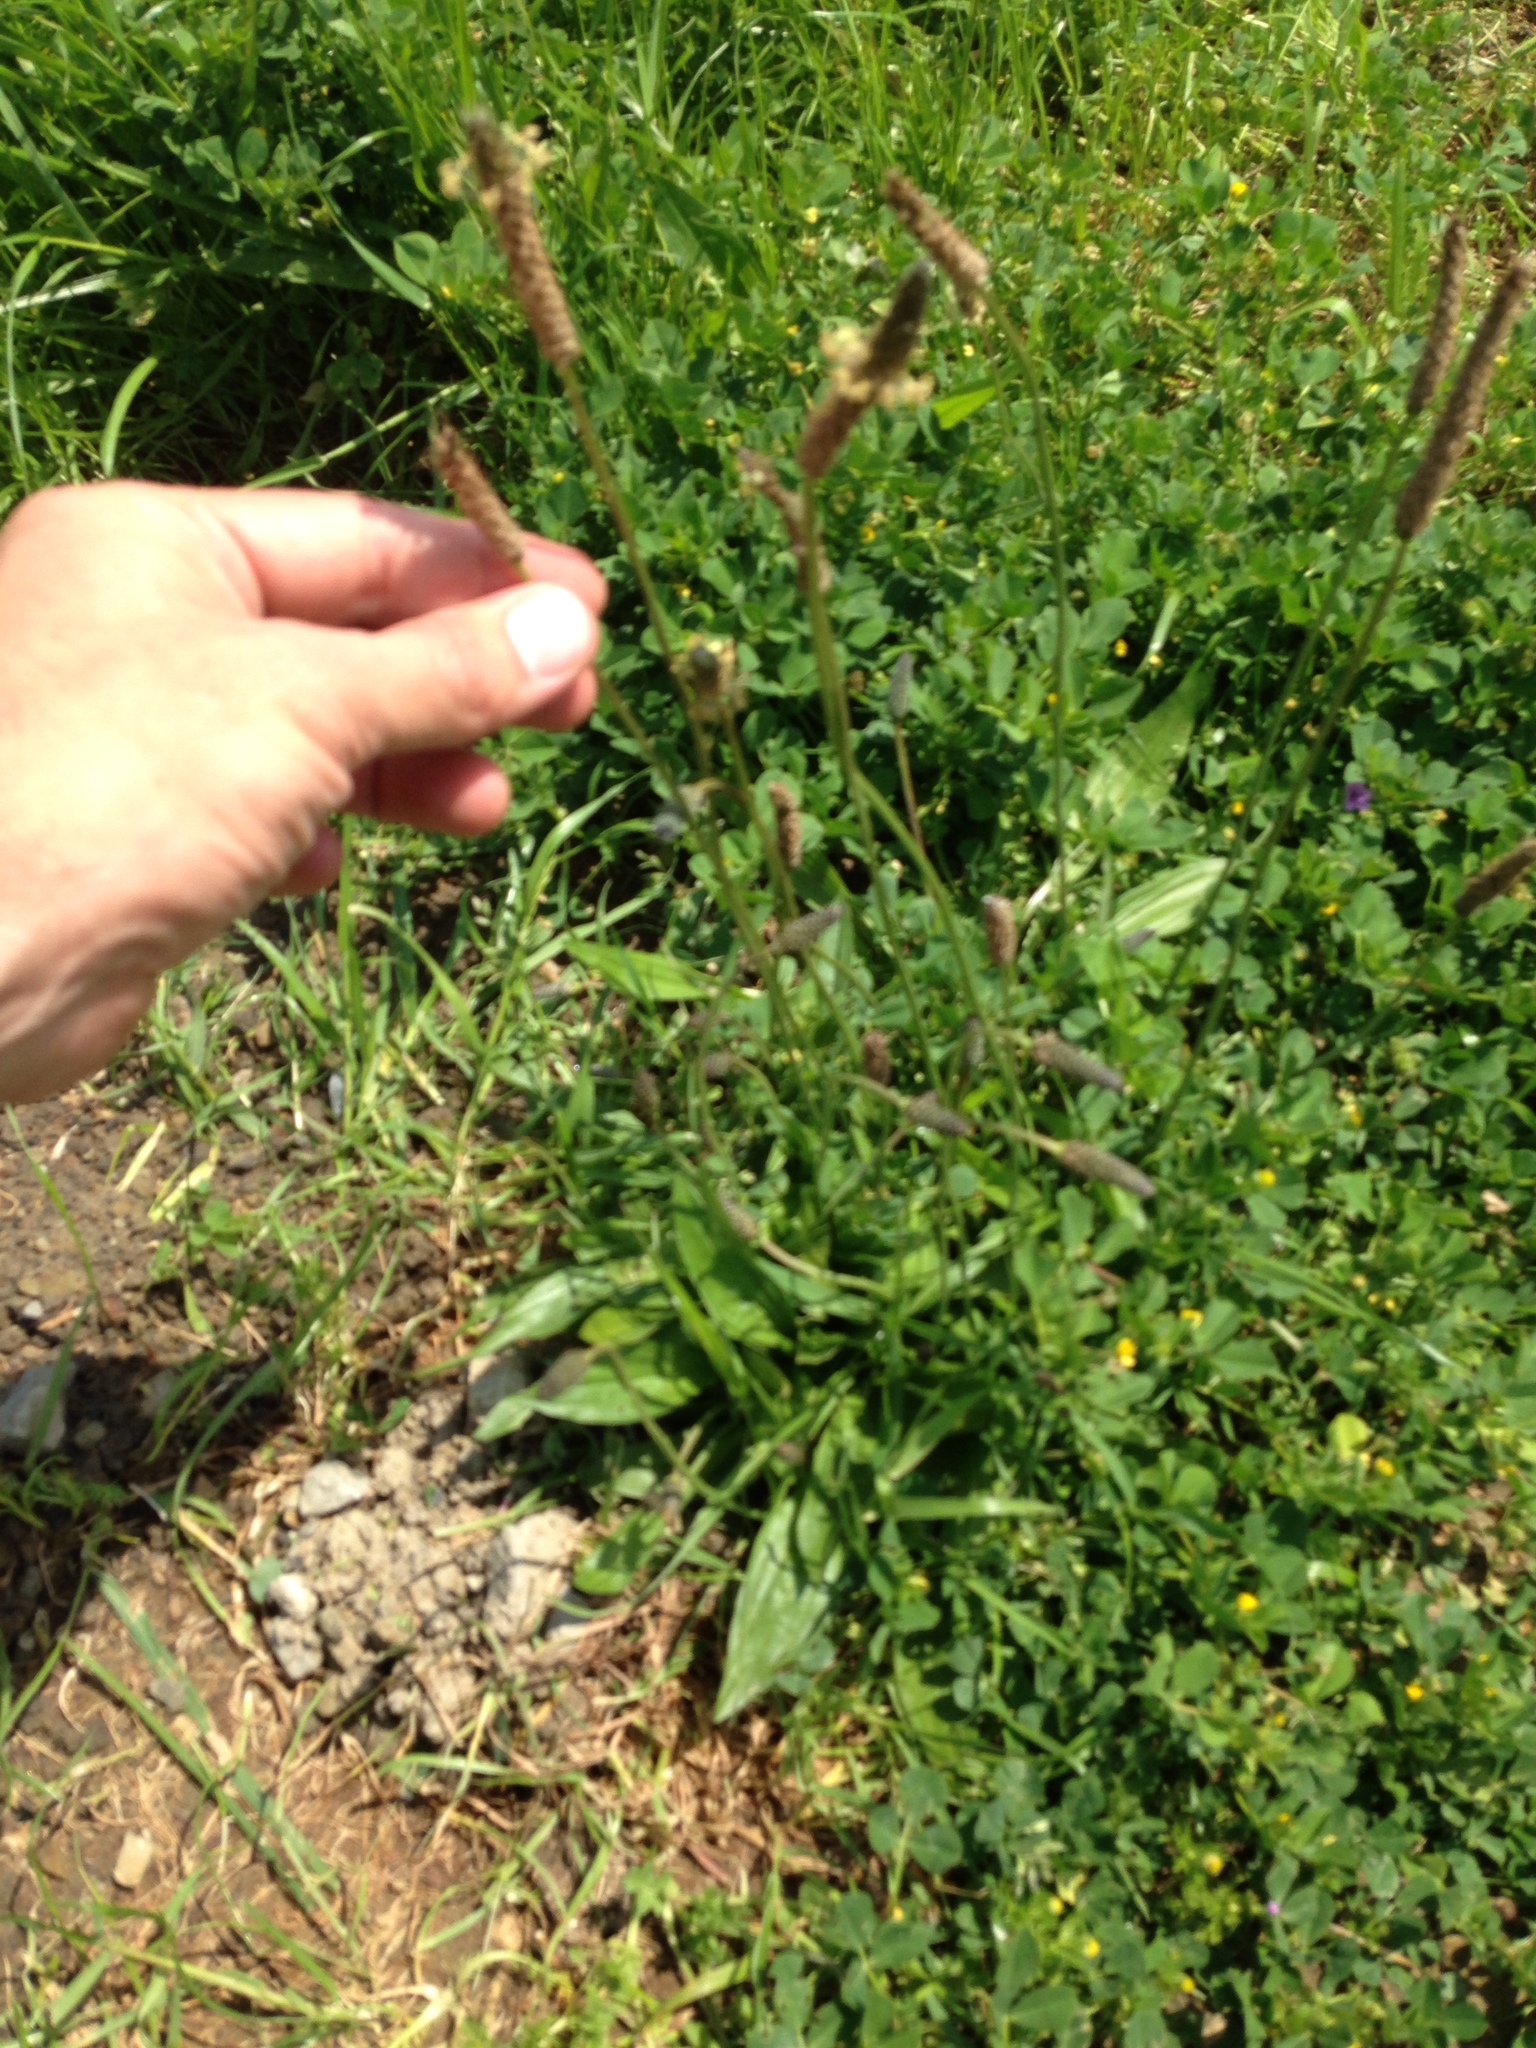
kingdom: Plantae
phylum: Tracheophyta
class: Magnoliopsida
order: Lamiales
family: Plantaginaceae
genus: Plantago
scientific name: Plantago lanceolata
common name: Ribwort plantain
